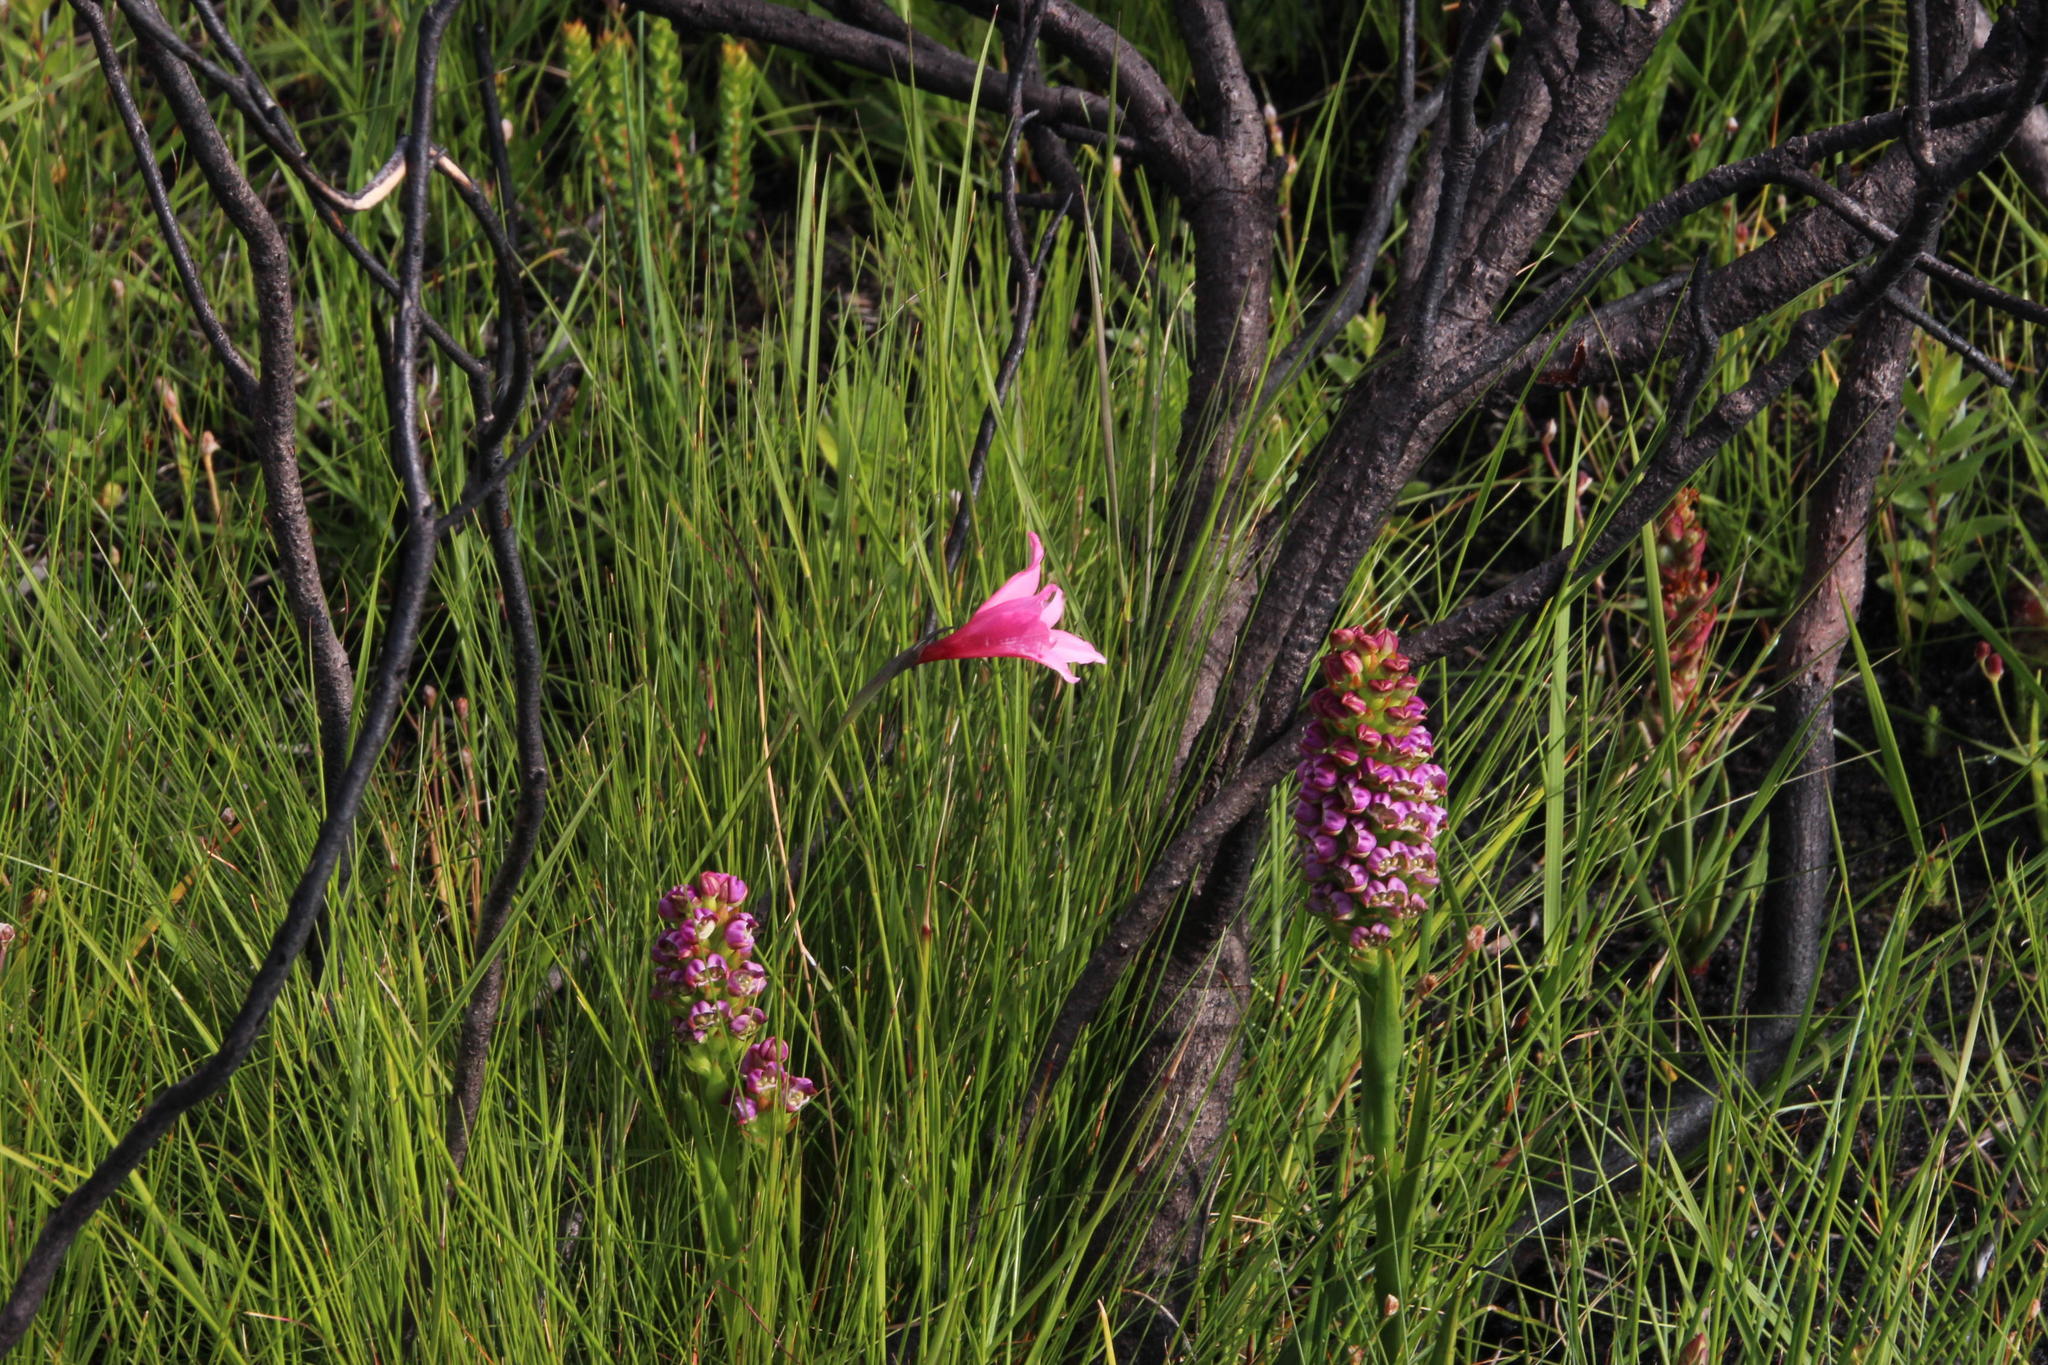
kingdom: Plantae
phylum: Tracheophyta
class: Liliopsida
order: Asparagales
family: Iridaceae
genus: Gladiolus
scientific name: Gladiolus ornatus
